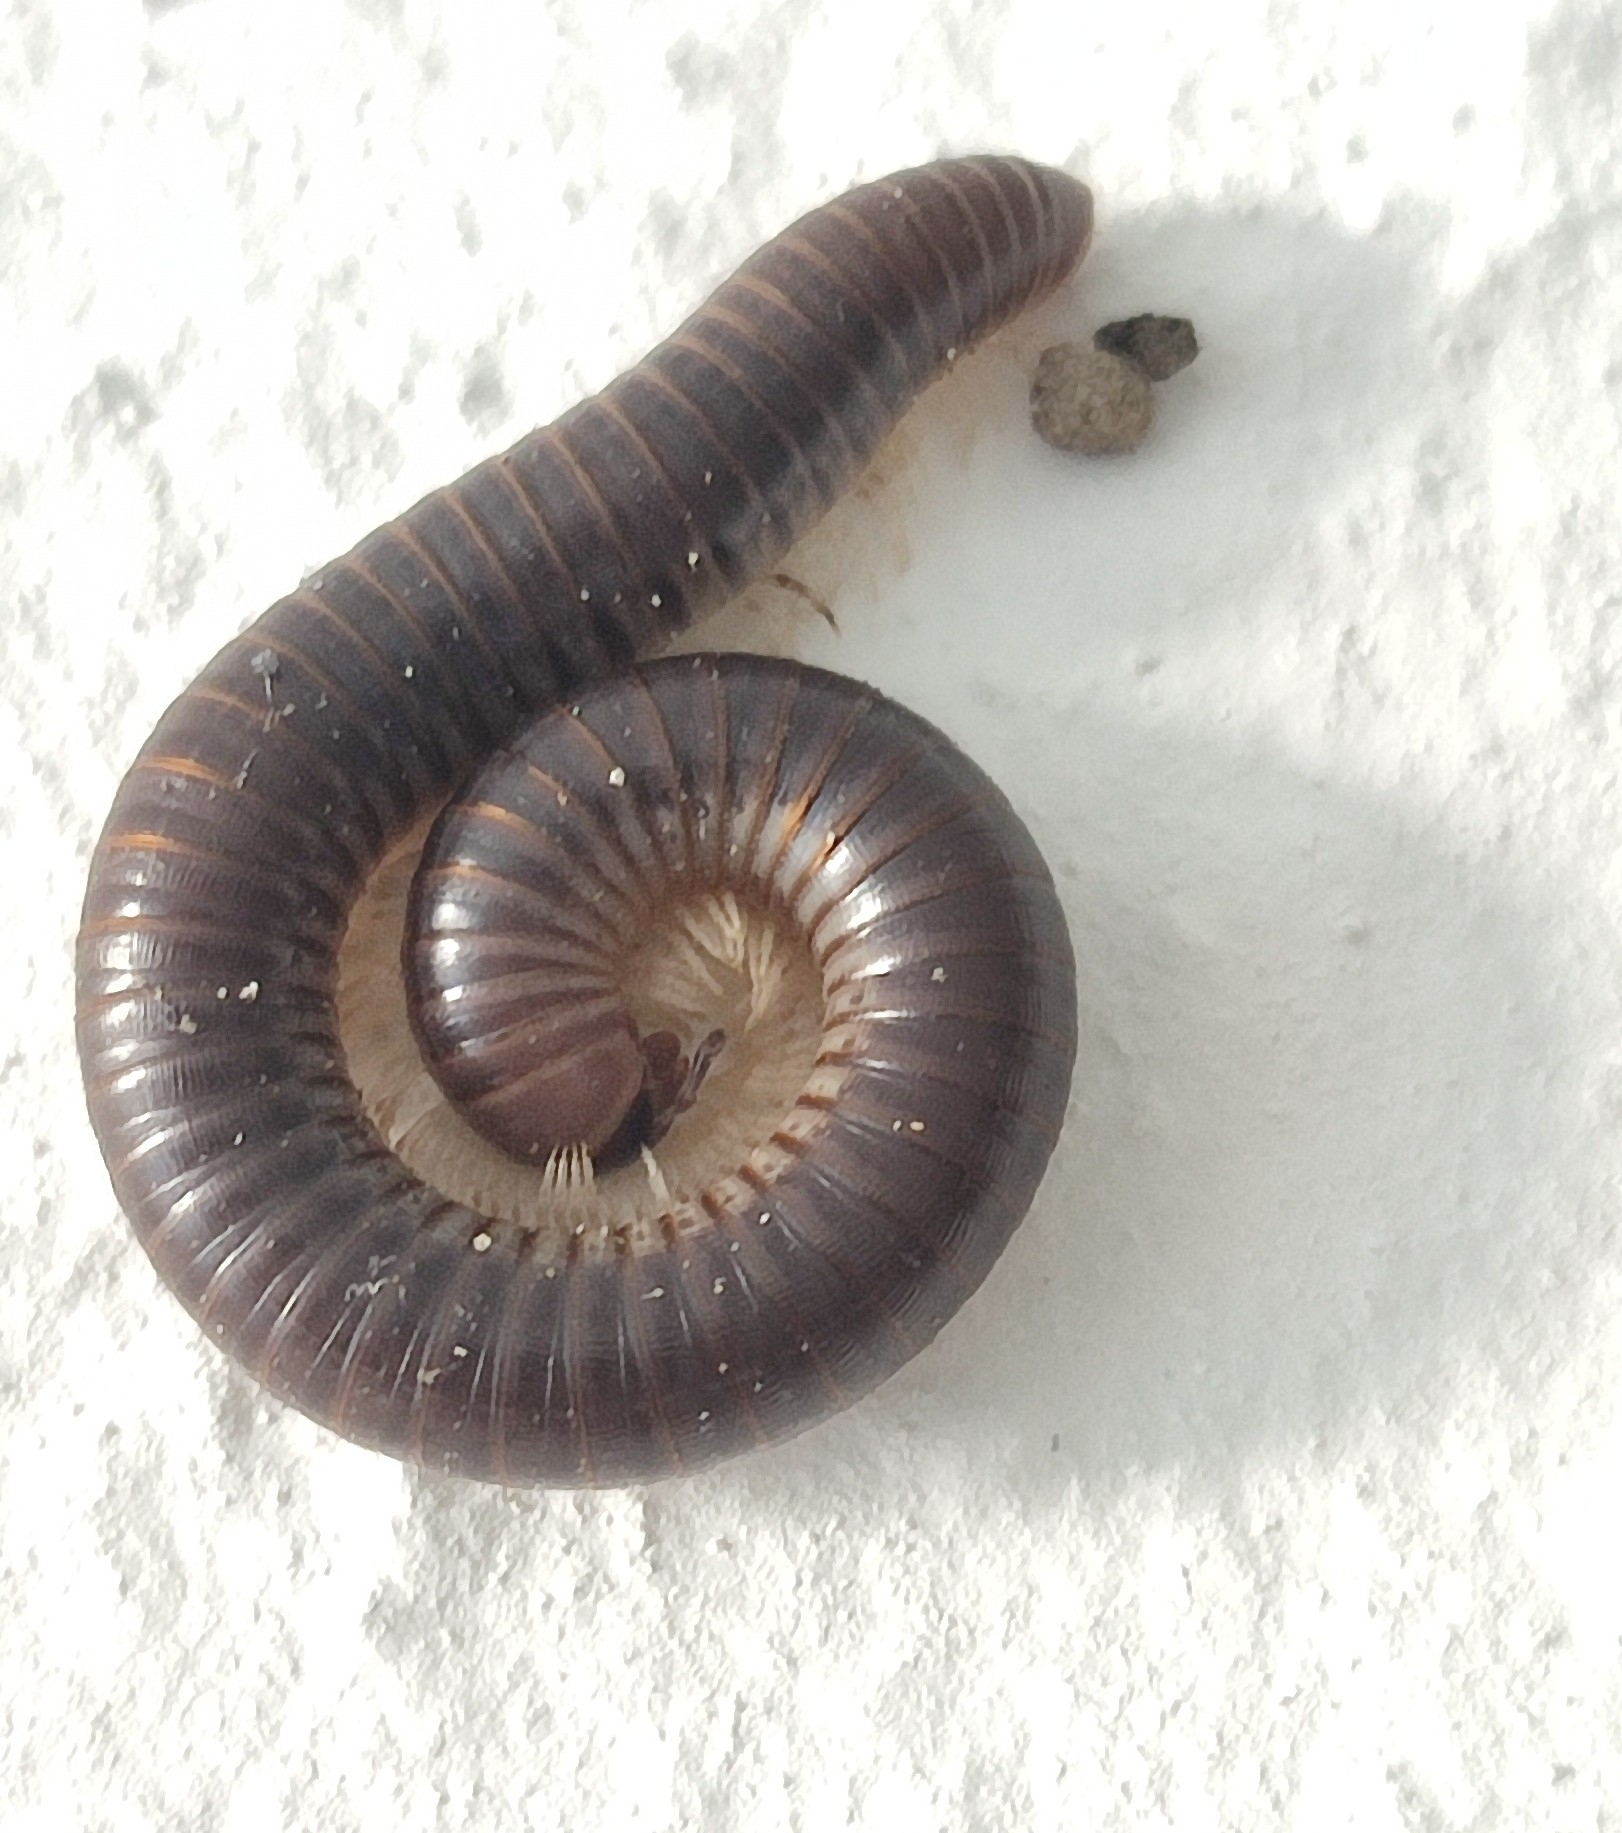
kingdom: Animalia
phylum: Arthropoda
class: Diplopoda
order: Julida
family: Julidae
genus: Pachyiulus
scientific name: Pachyiulus flavipes
